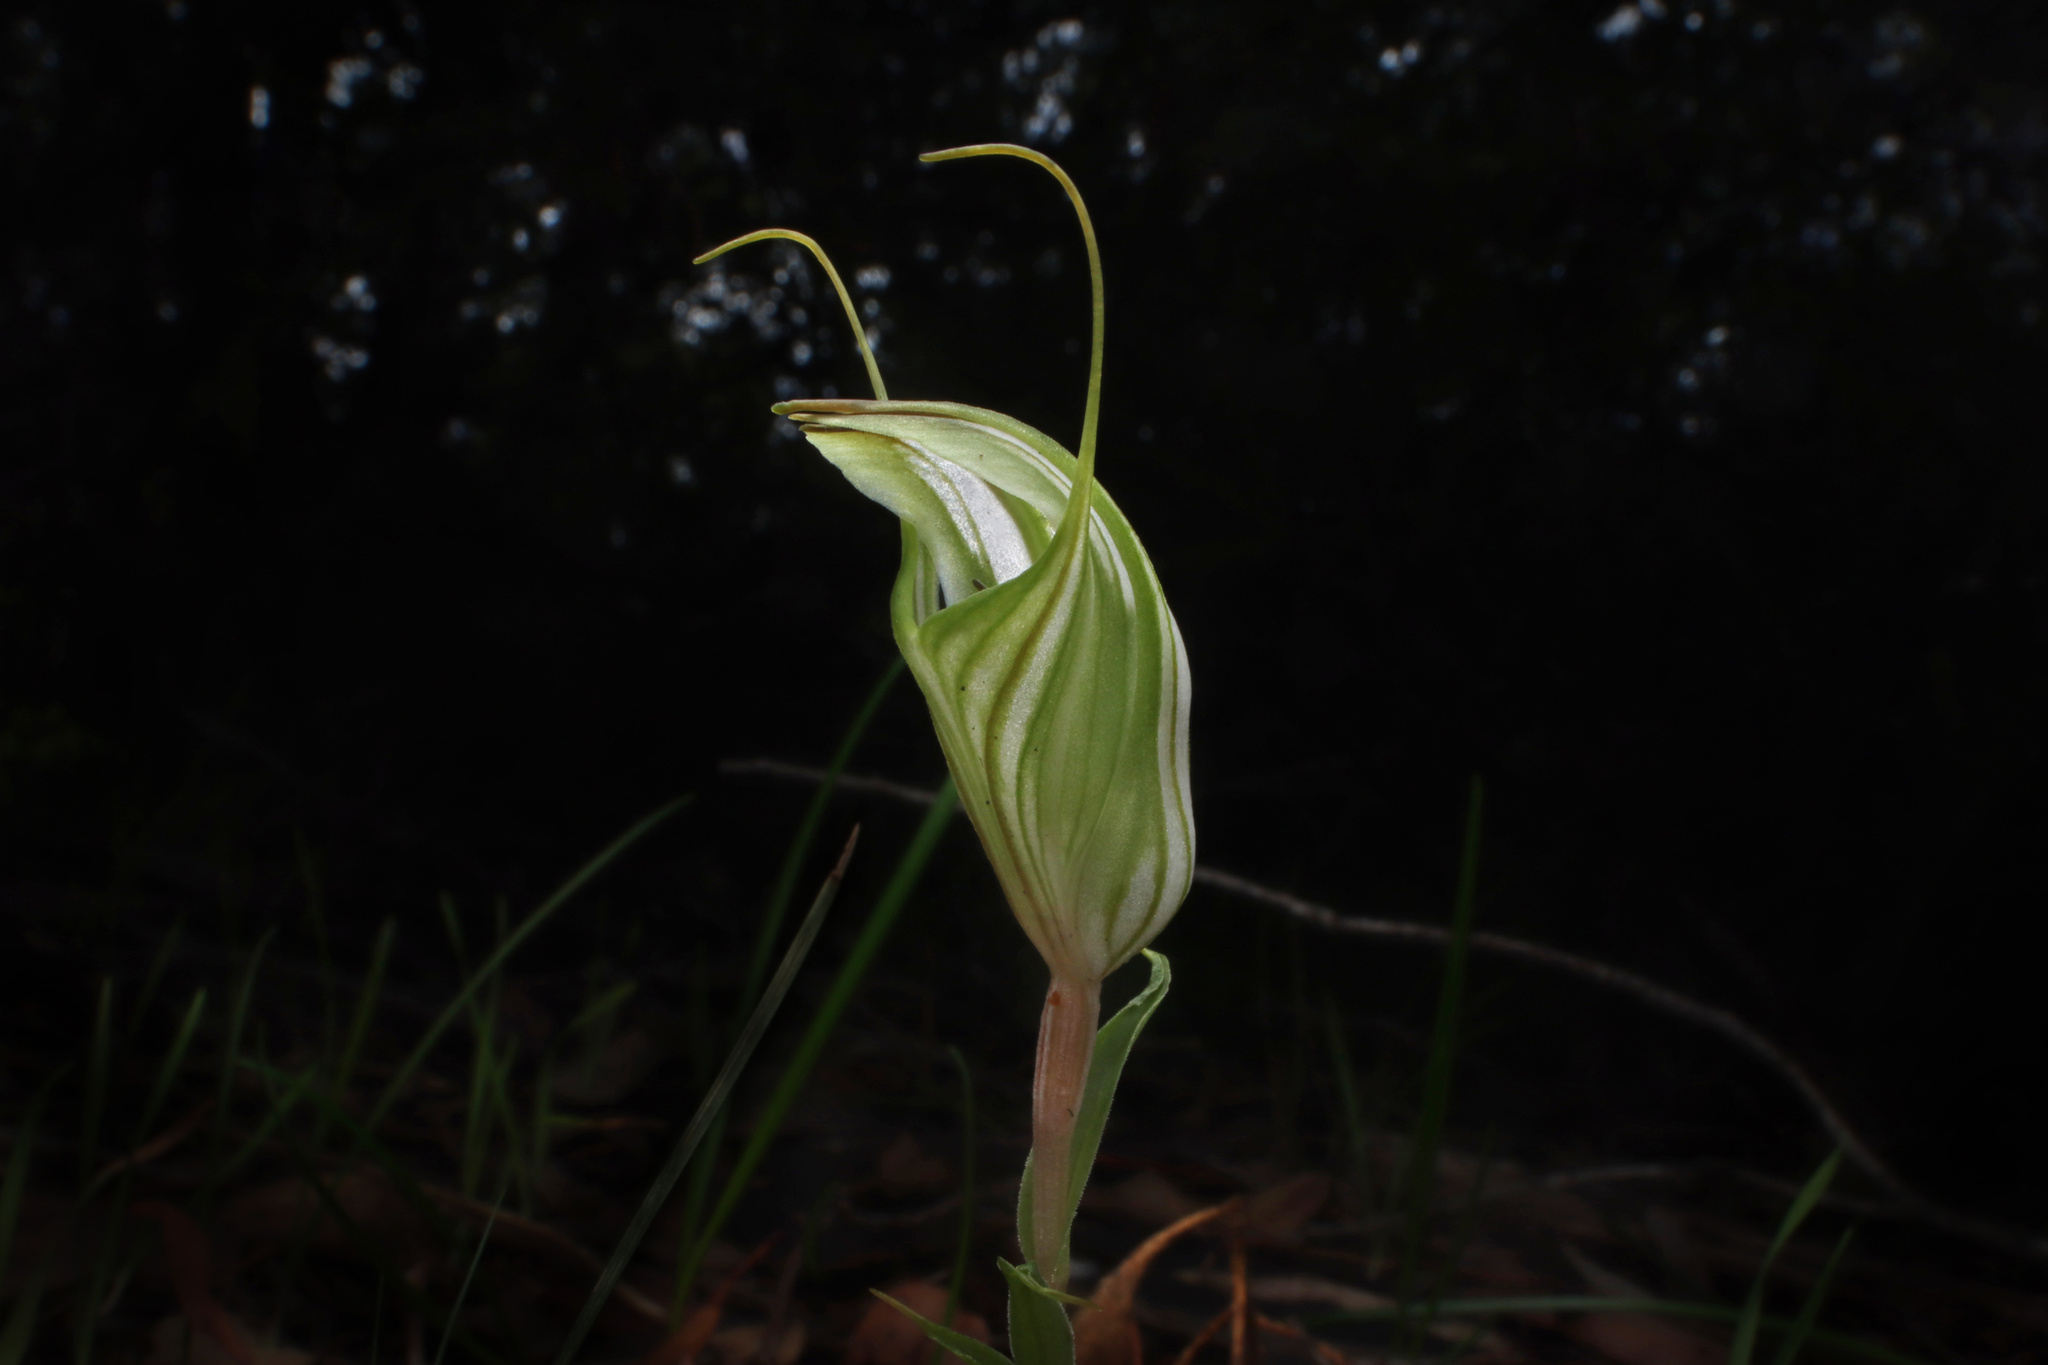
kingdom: Plantae
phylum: Tracheophyta
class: Liliopsida
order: Asparagales
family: Orchidaceae
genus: Pterostylis
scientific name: Pterostylis robusta
